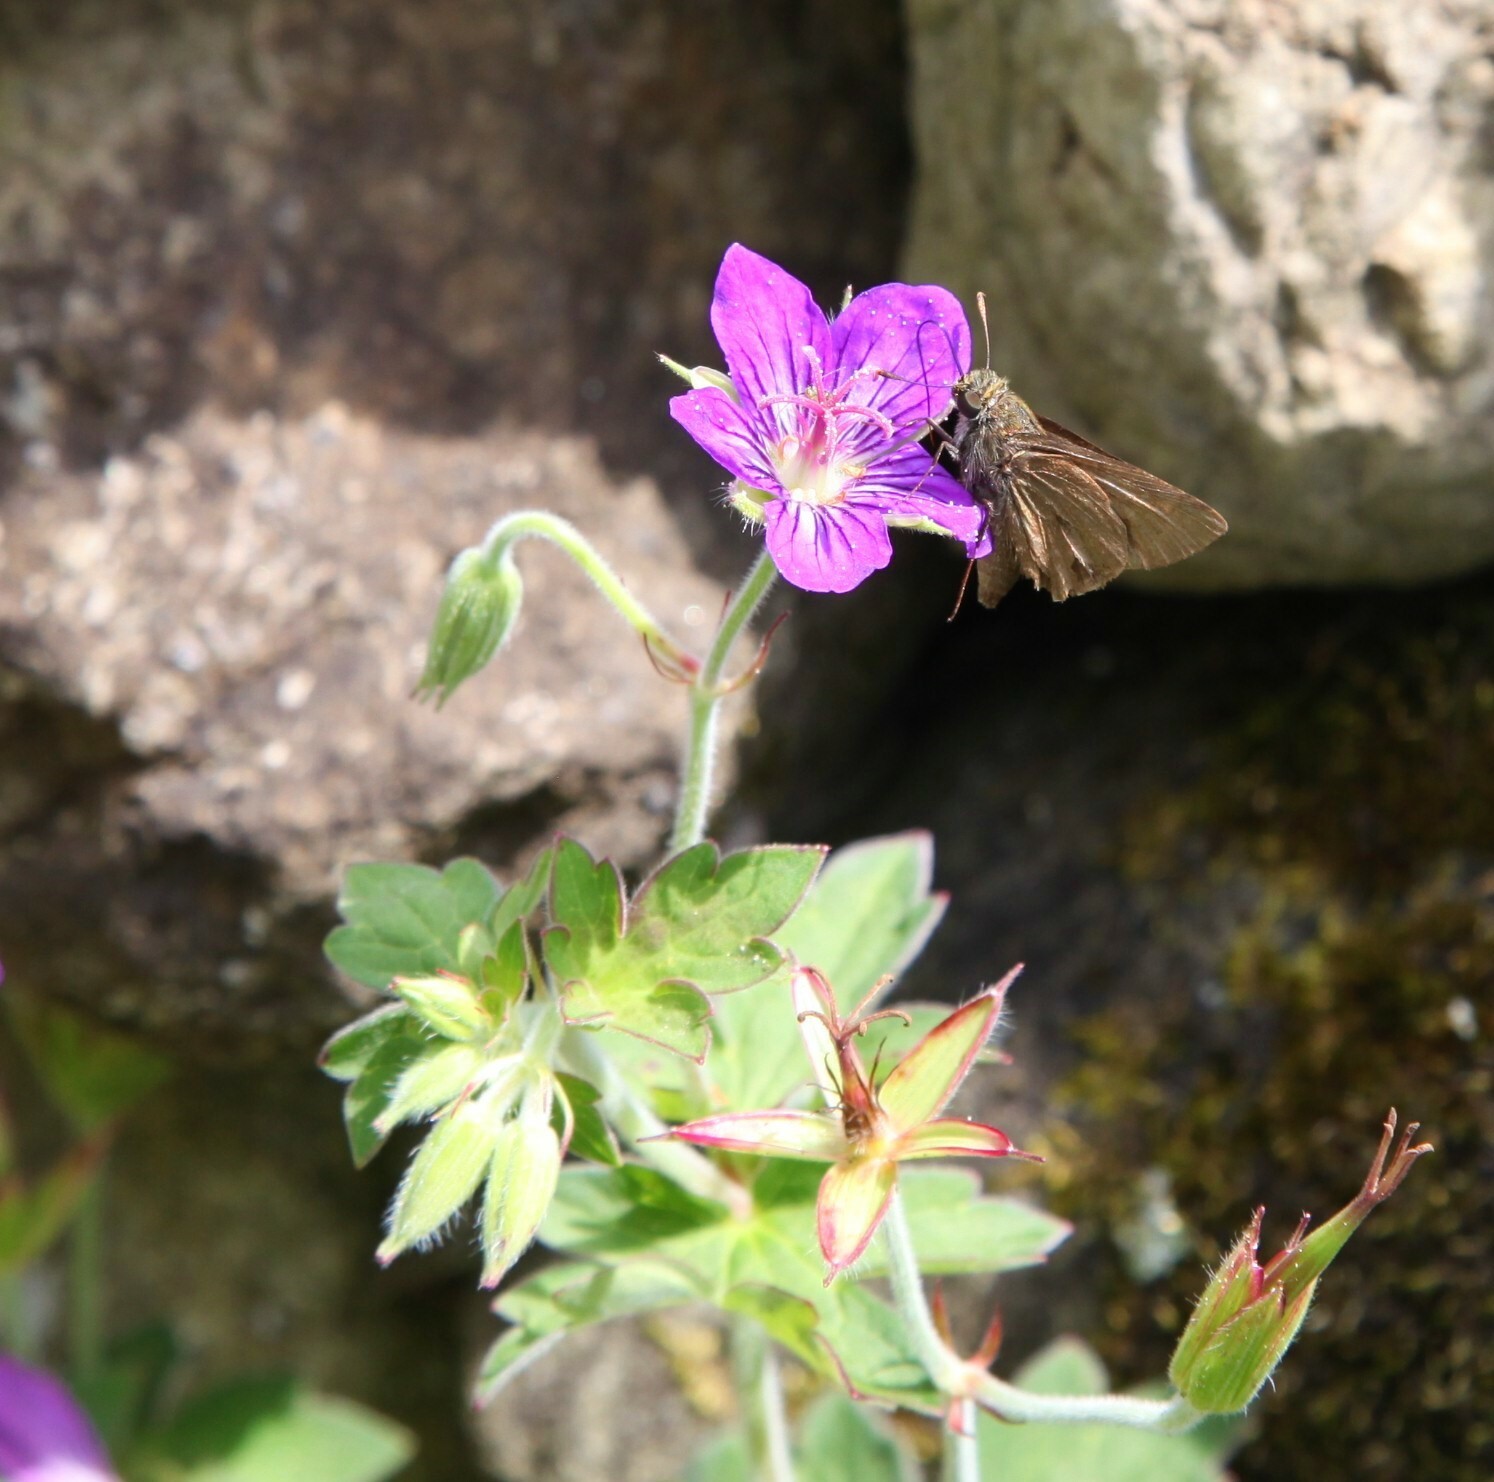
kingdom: Animalia
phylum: Arthropoda
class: Insecta
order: Lepidoptera
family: Hesperiidae
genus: Euphyes
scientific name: Euphyes vestris
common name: Dun skipper
